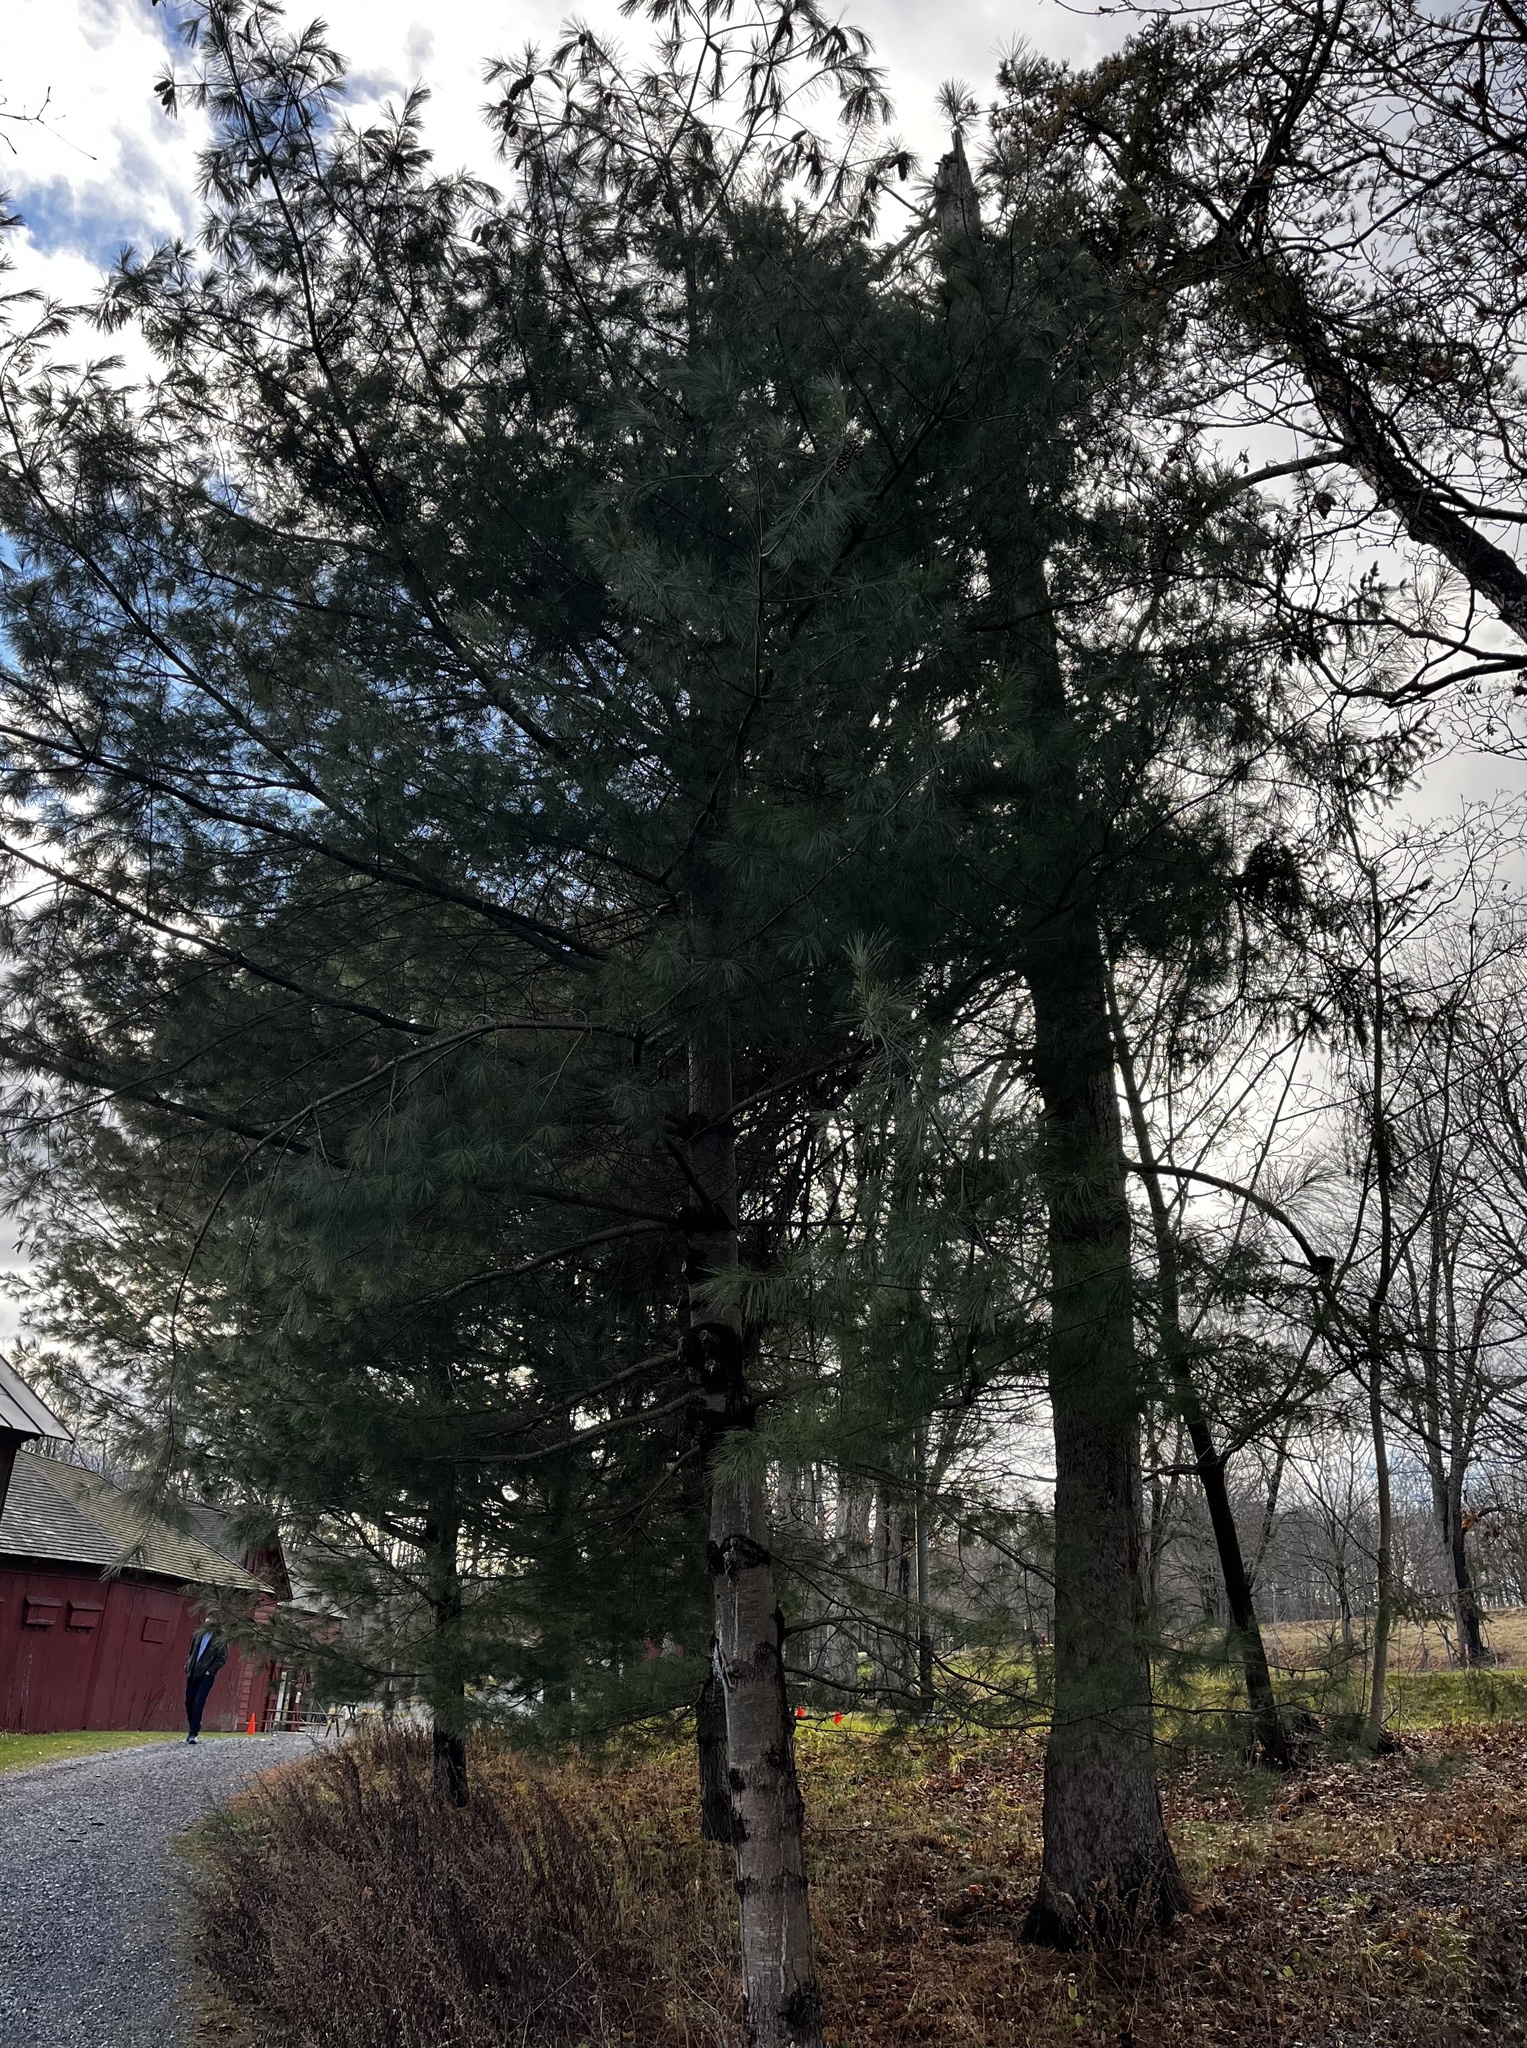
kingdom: Plantae
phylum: Tracheophyta
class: Pinopsida
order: Pinales
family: Pinaceae
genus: Pinus
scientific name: Pinus strobus
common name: Weymouth pine
